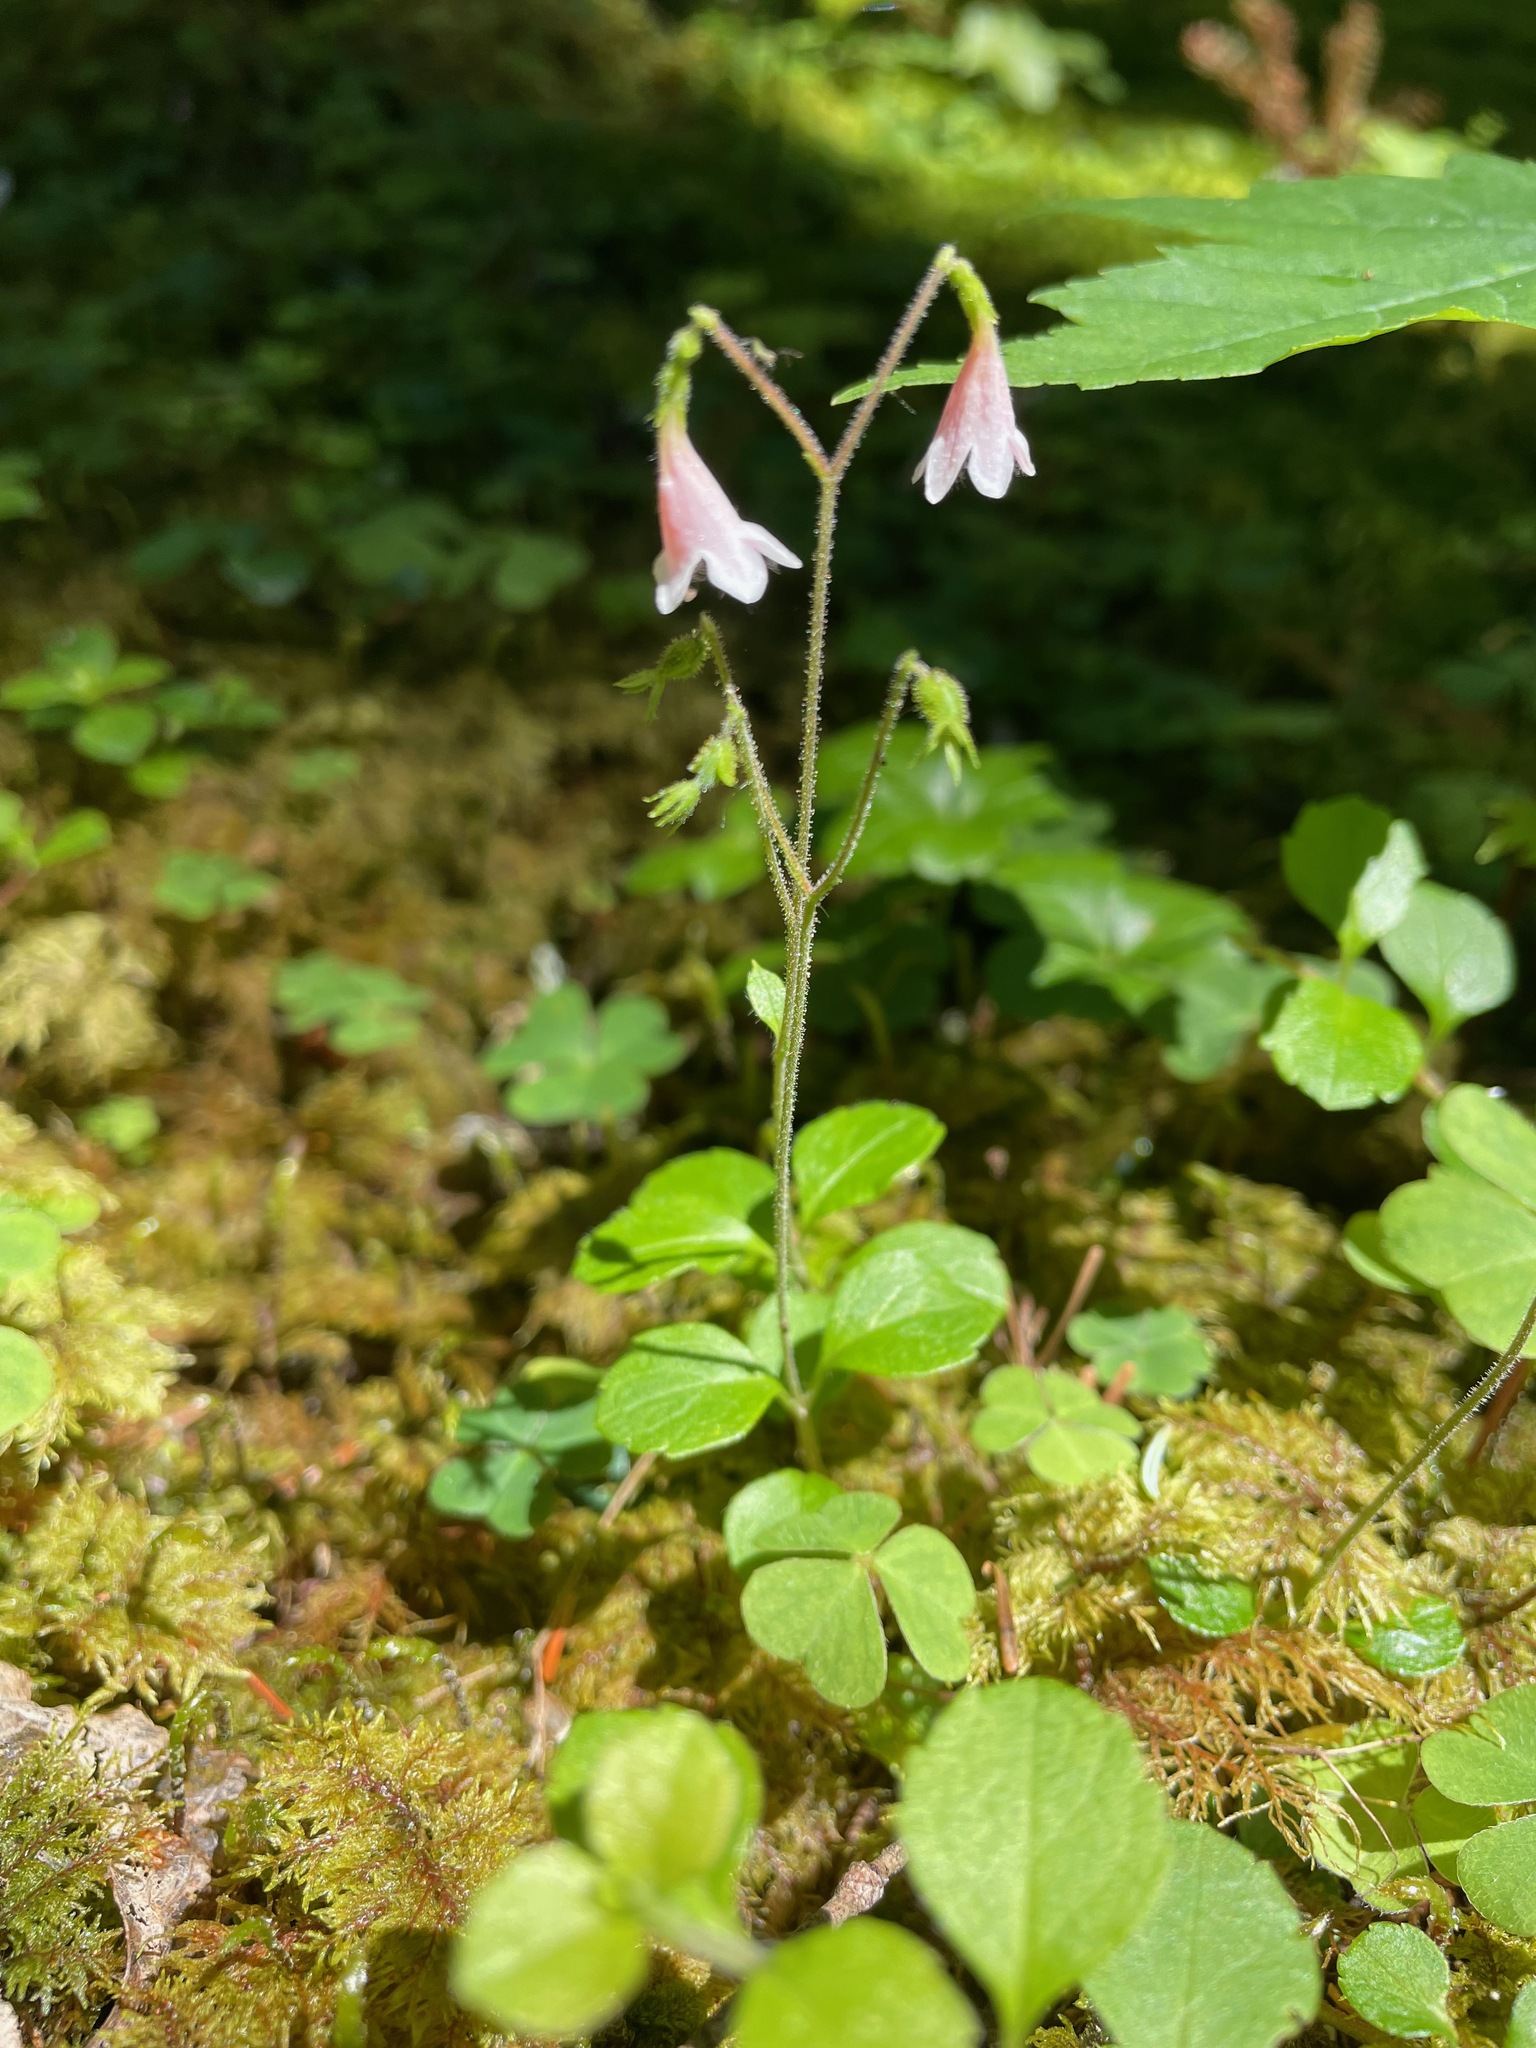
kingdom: Plantae
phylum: Tracheophyta
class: Magnoliopsida
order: Dipsacales
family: Caprifoliaceae
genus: Linnaea
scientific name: Linnaea borealis
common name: Twinflower
